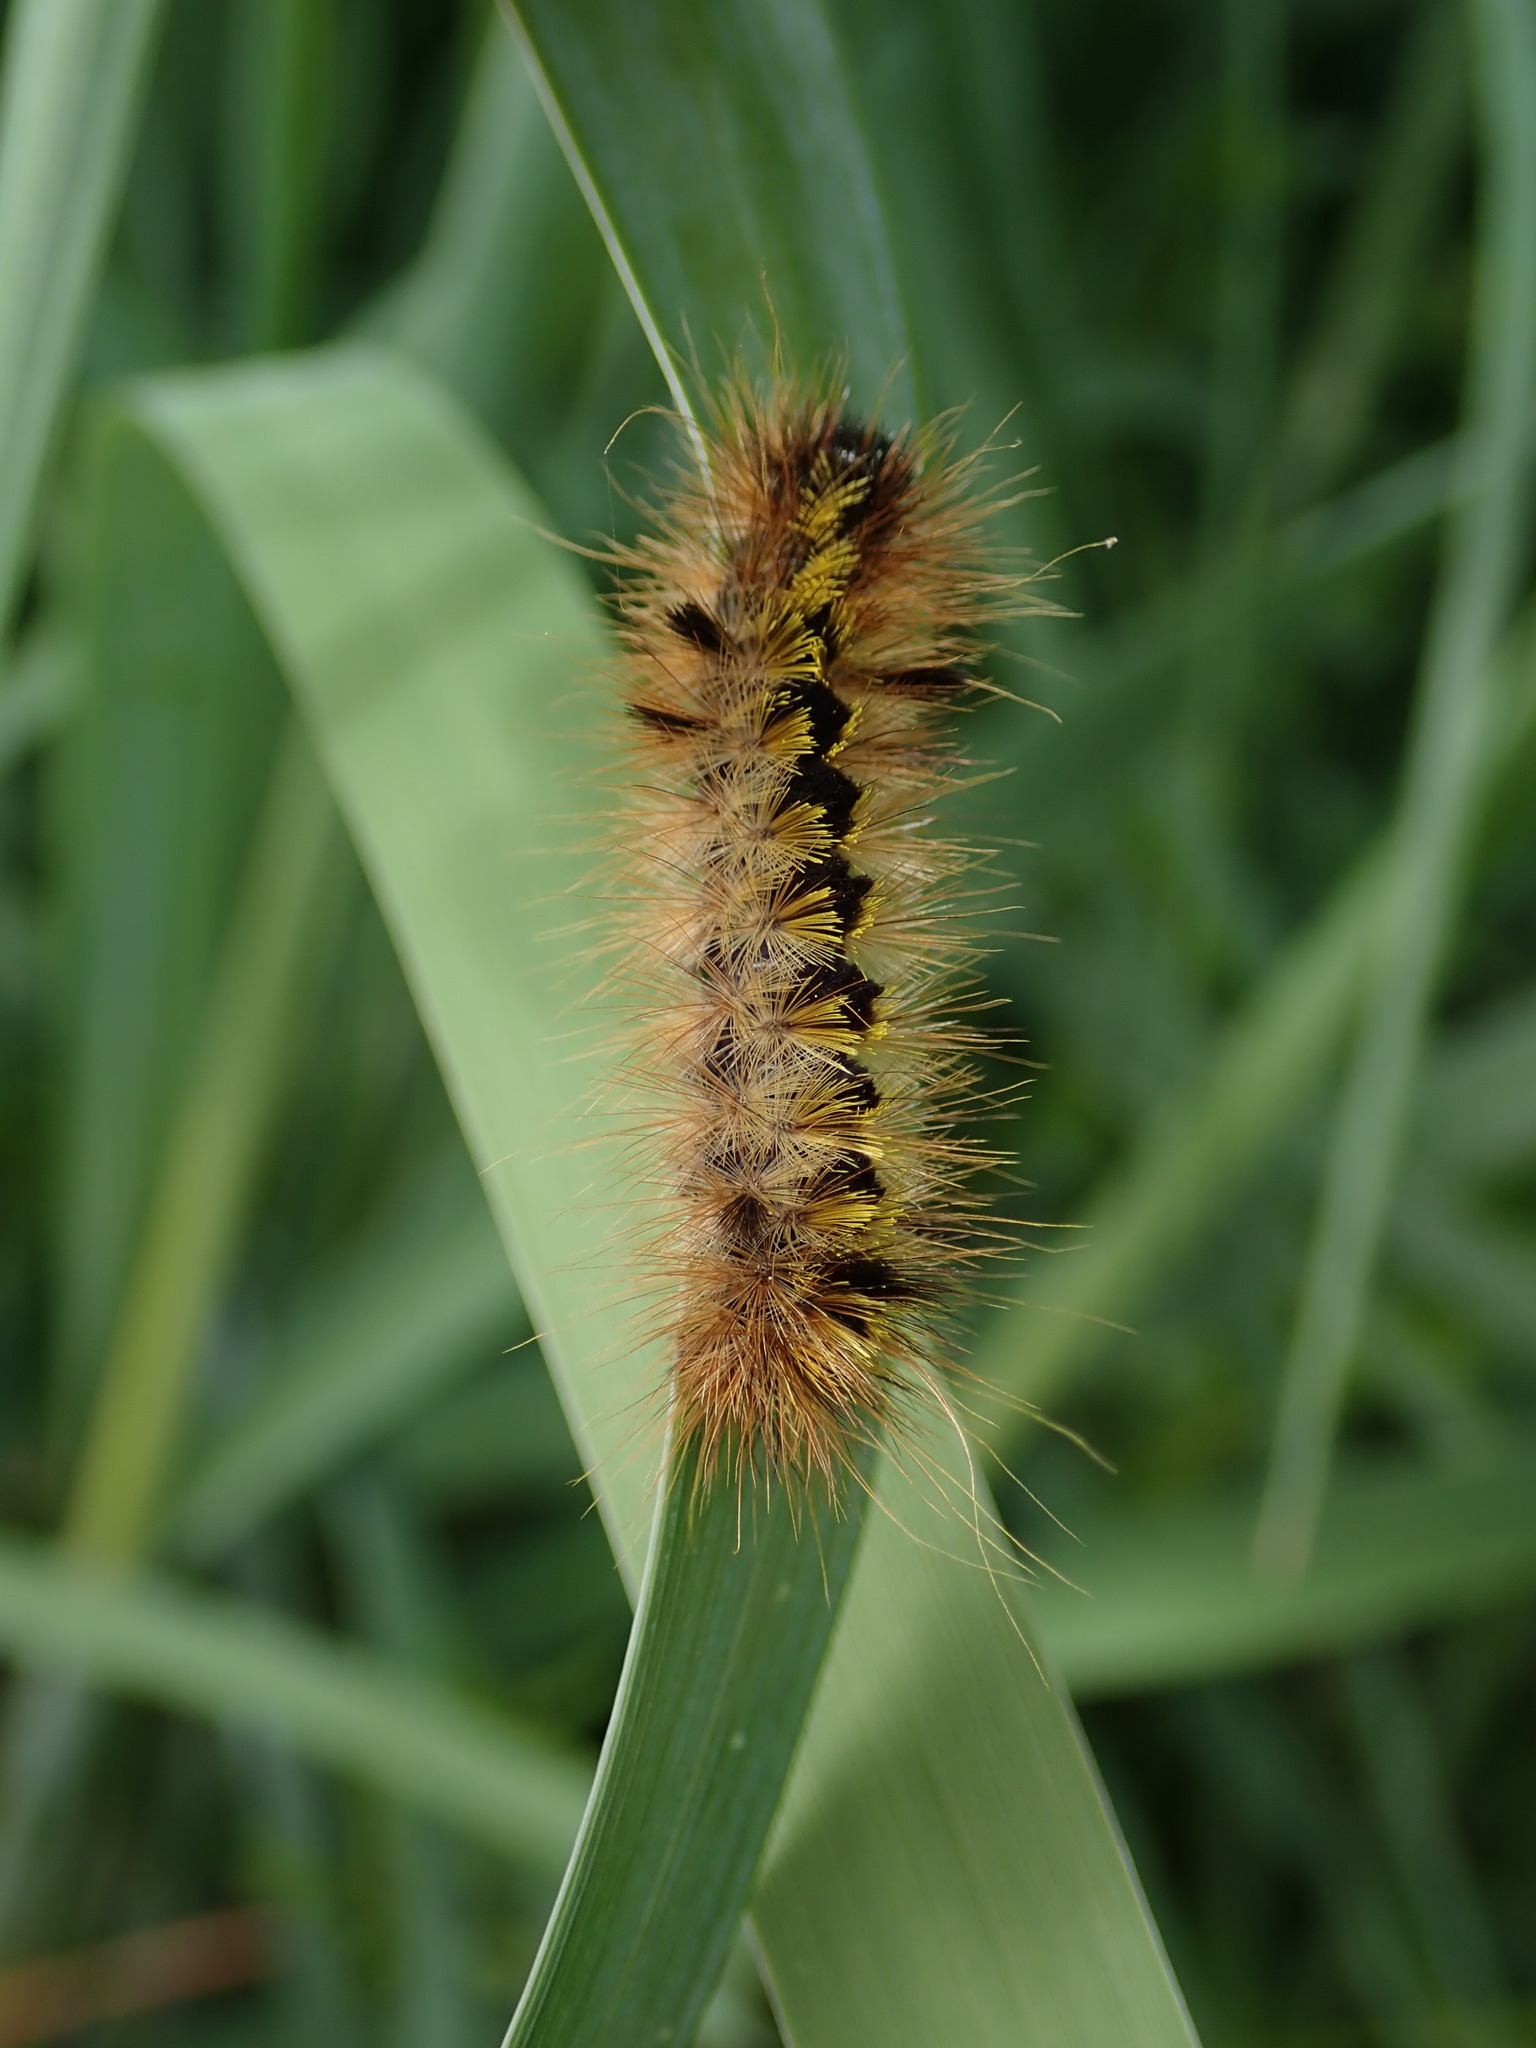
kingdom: Animalia
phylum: Arthropoda
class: Insecta
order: Lepidoptera
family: Erebidae
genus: Lophocampa
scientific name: Lophocampa argentata
